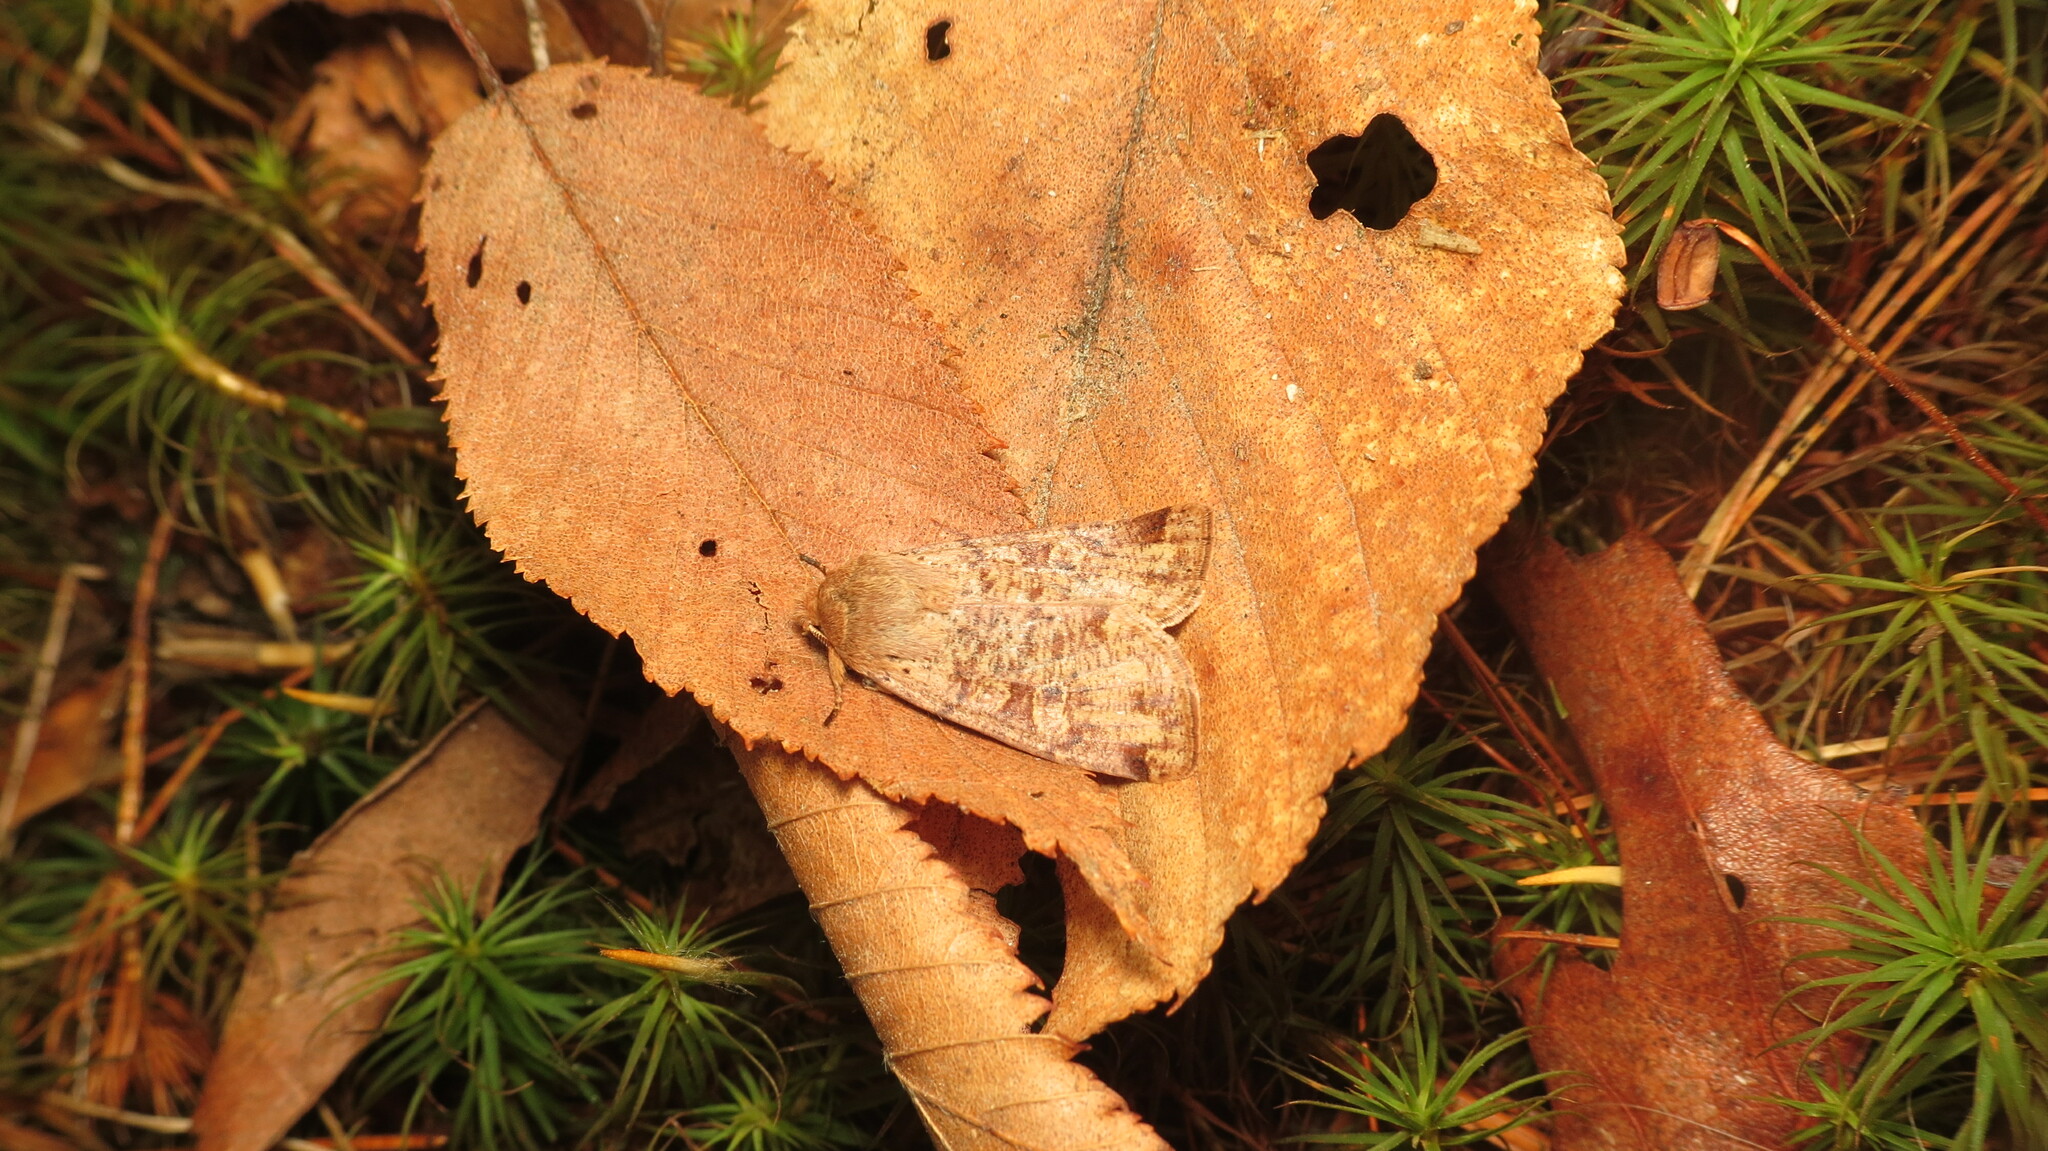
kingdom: Animalia
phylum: Arthropoda
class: Insecta
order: Lepidoptera
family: Noctuidae
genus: Orthosia
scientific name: Orthosia rubescens
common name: Ruby quaker
